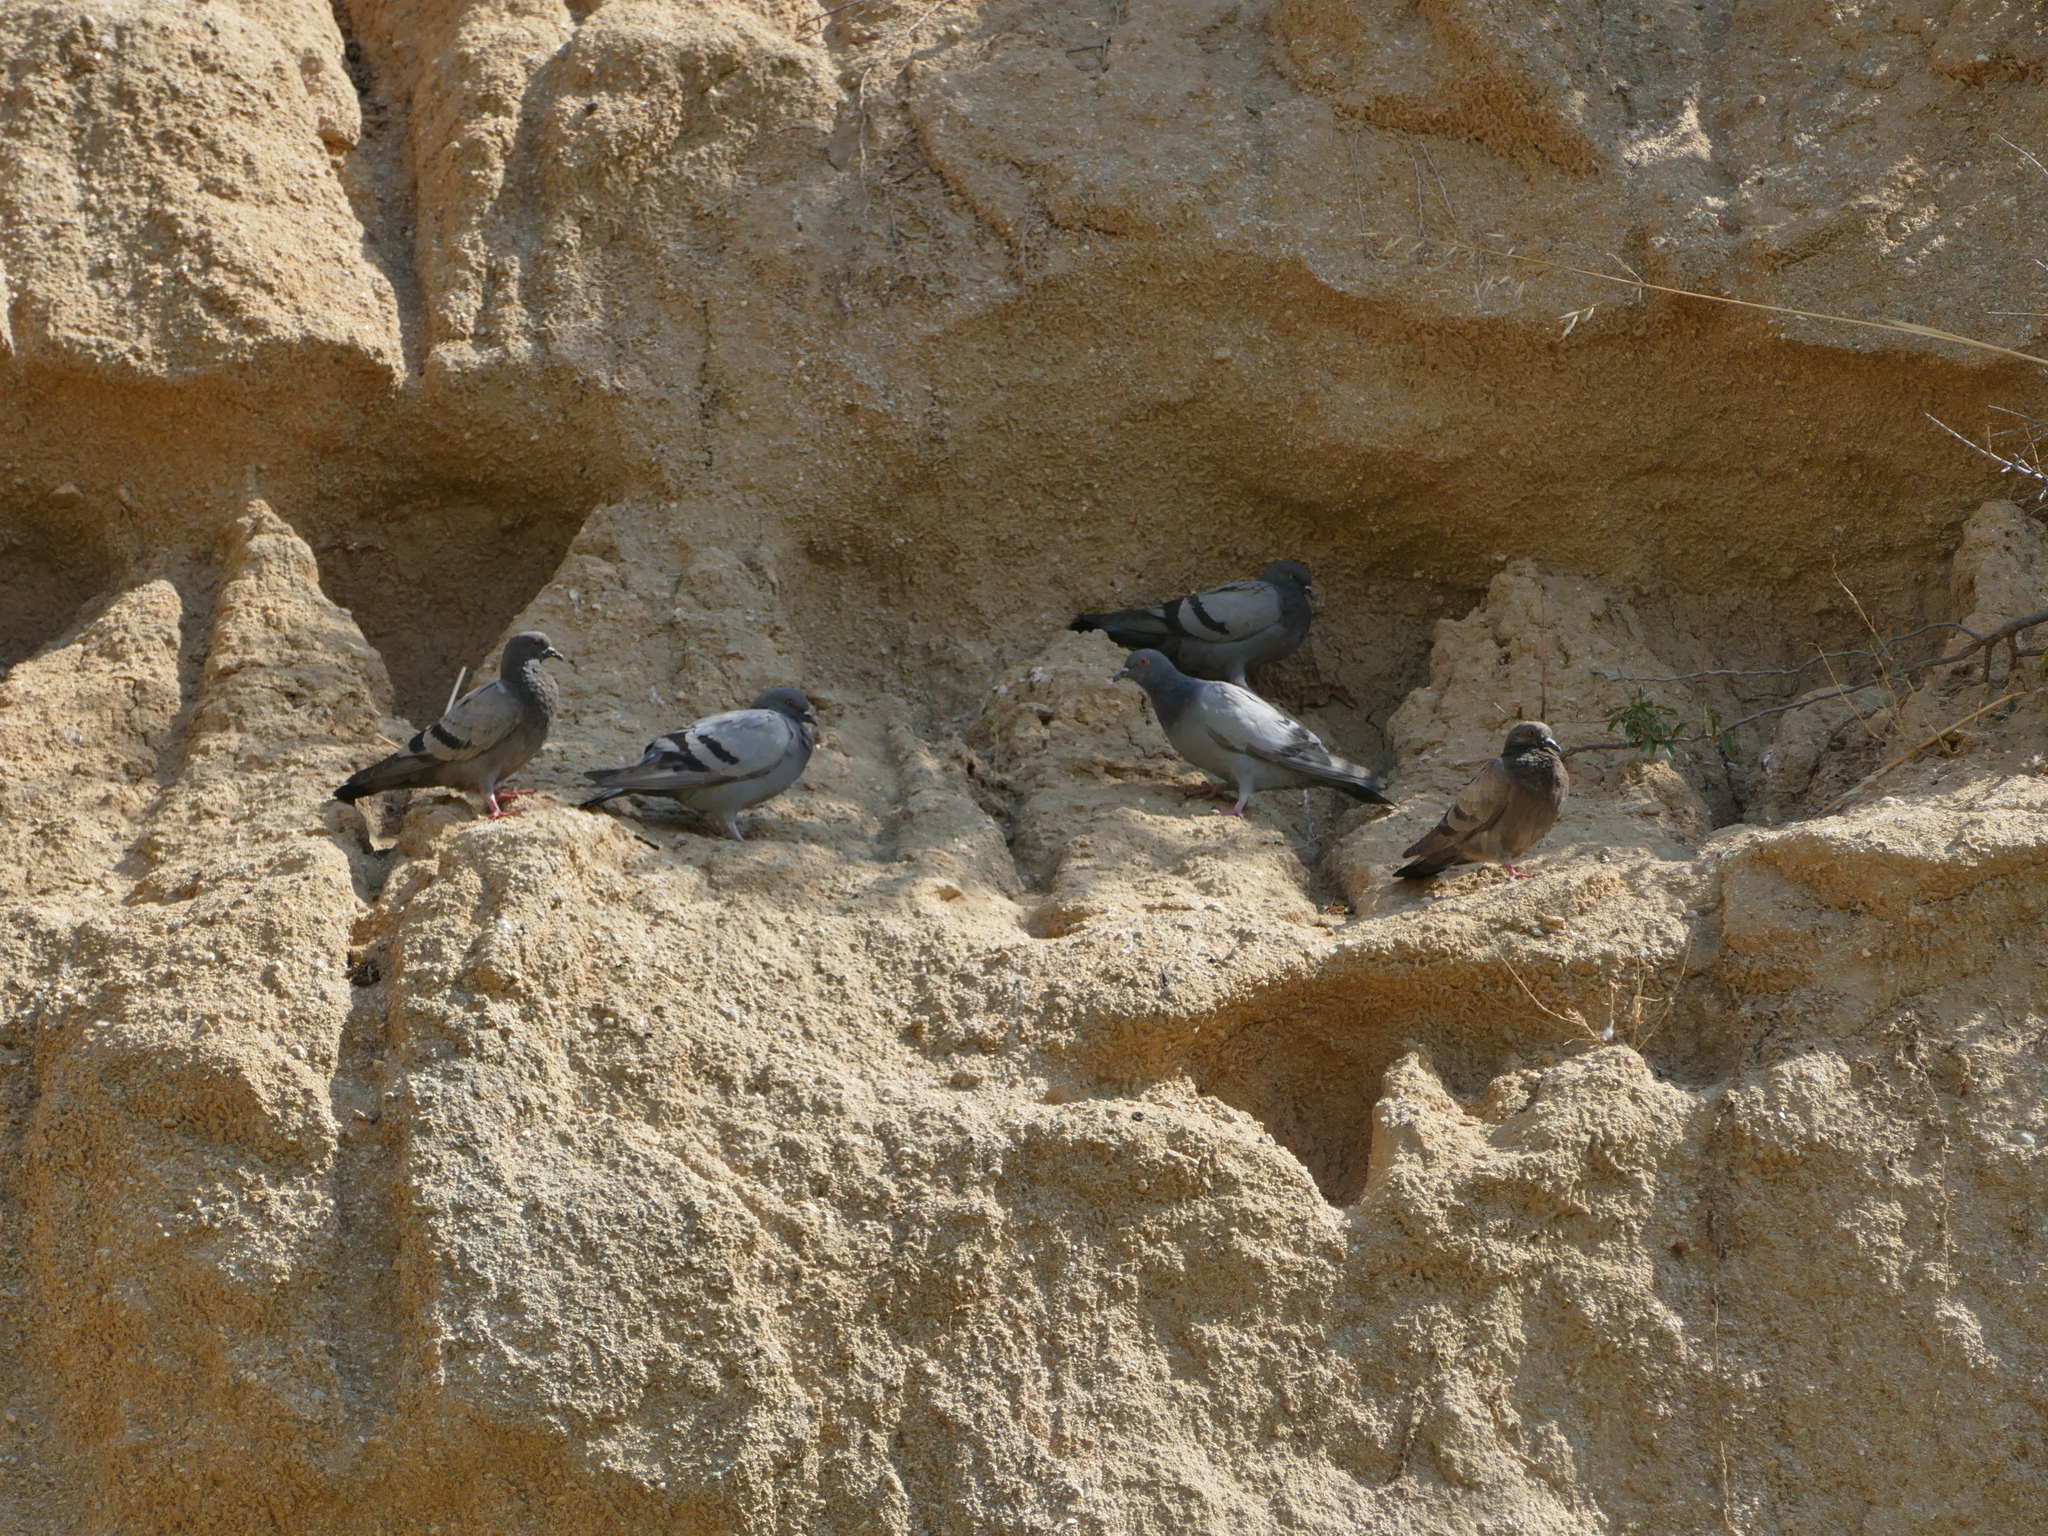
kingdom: Animalia
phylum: Chordata
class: Aves
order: Columbiformes
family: Columbidae
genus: Columba
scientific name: Columba livia
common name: Rock pigeon
